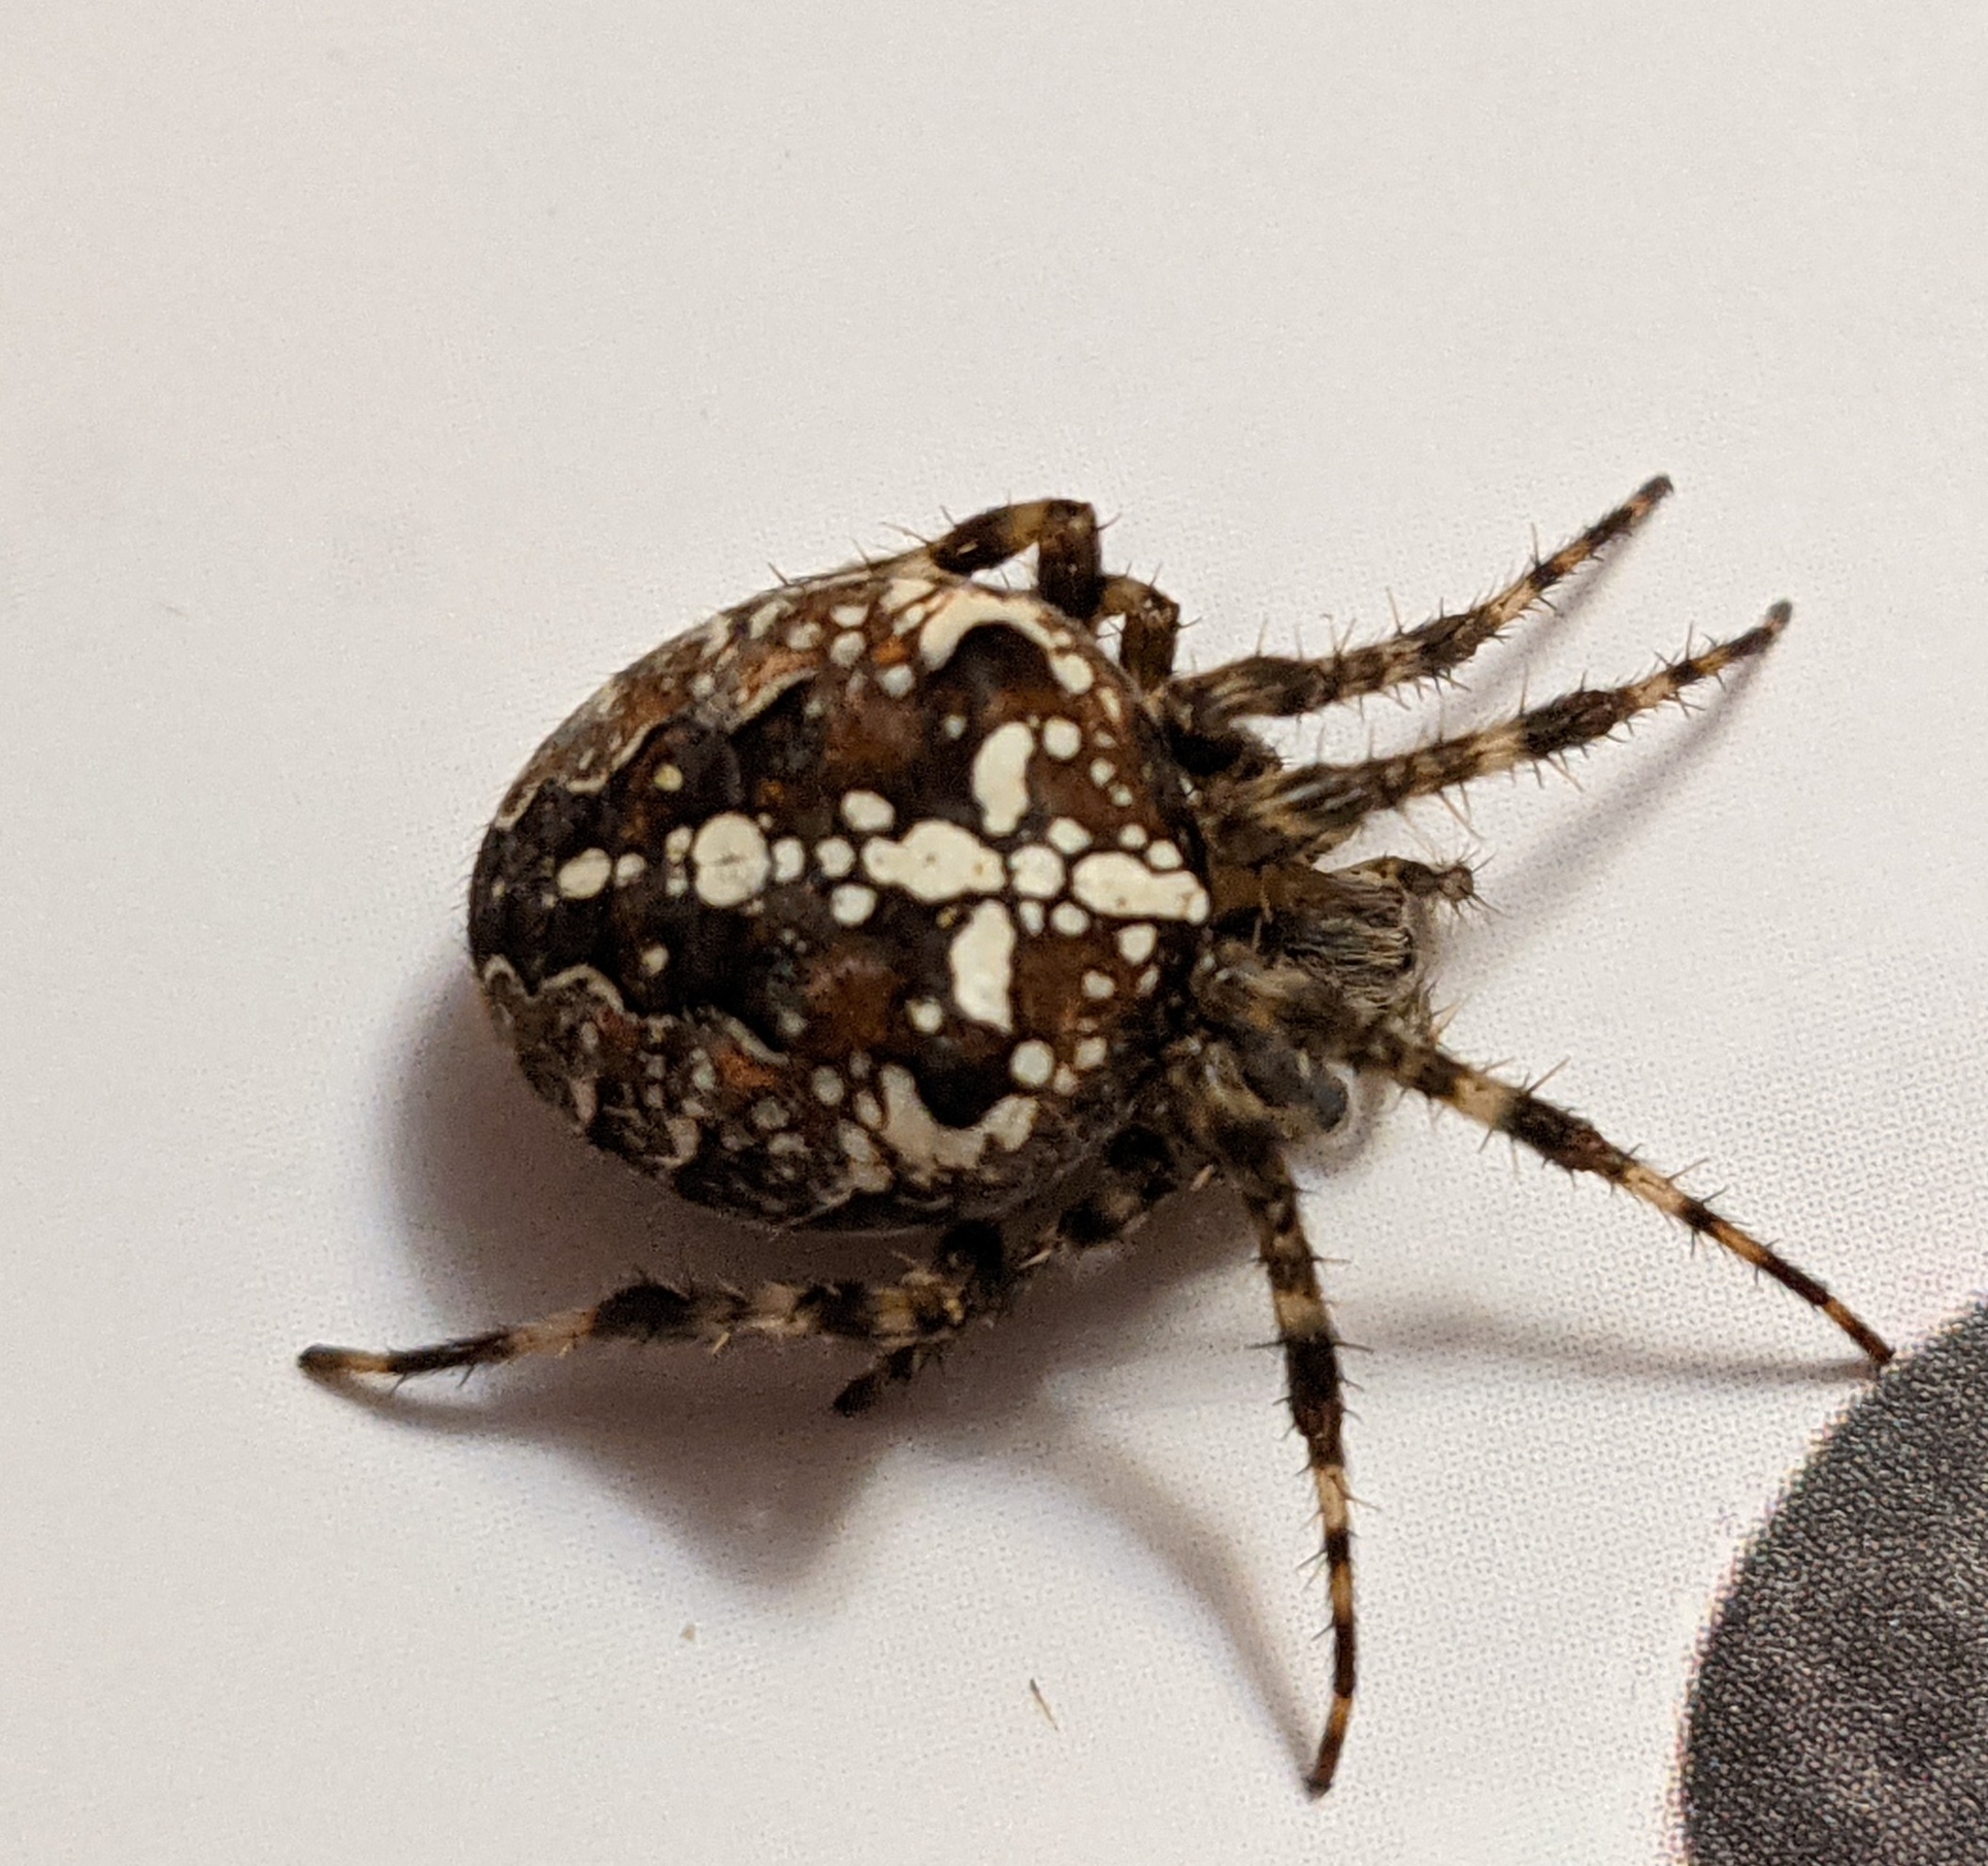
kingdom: Animalia
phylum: Arthropoda
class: Arachnida
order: Araneae
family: Araneidae
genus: Araneus
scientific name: Araneus diadematus
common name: Cross orbweaver
